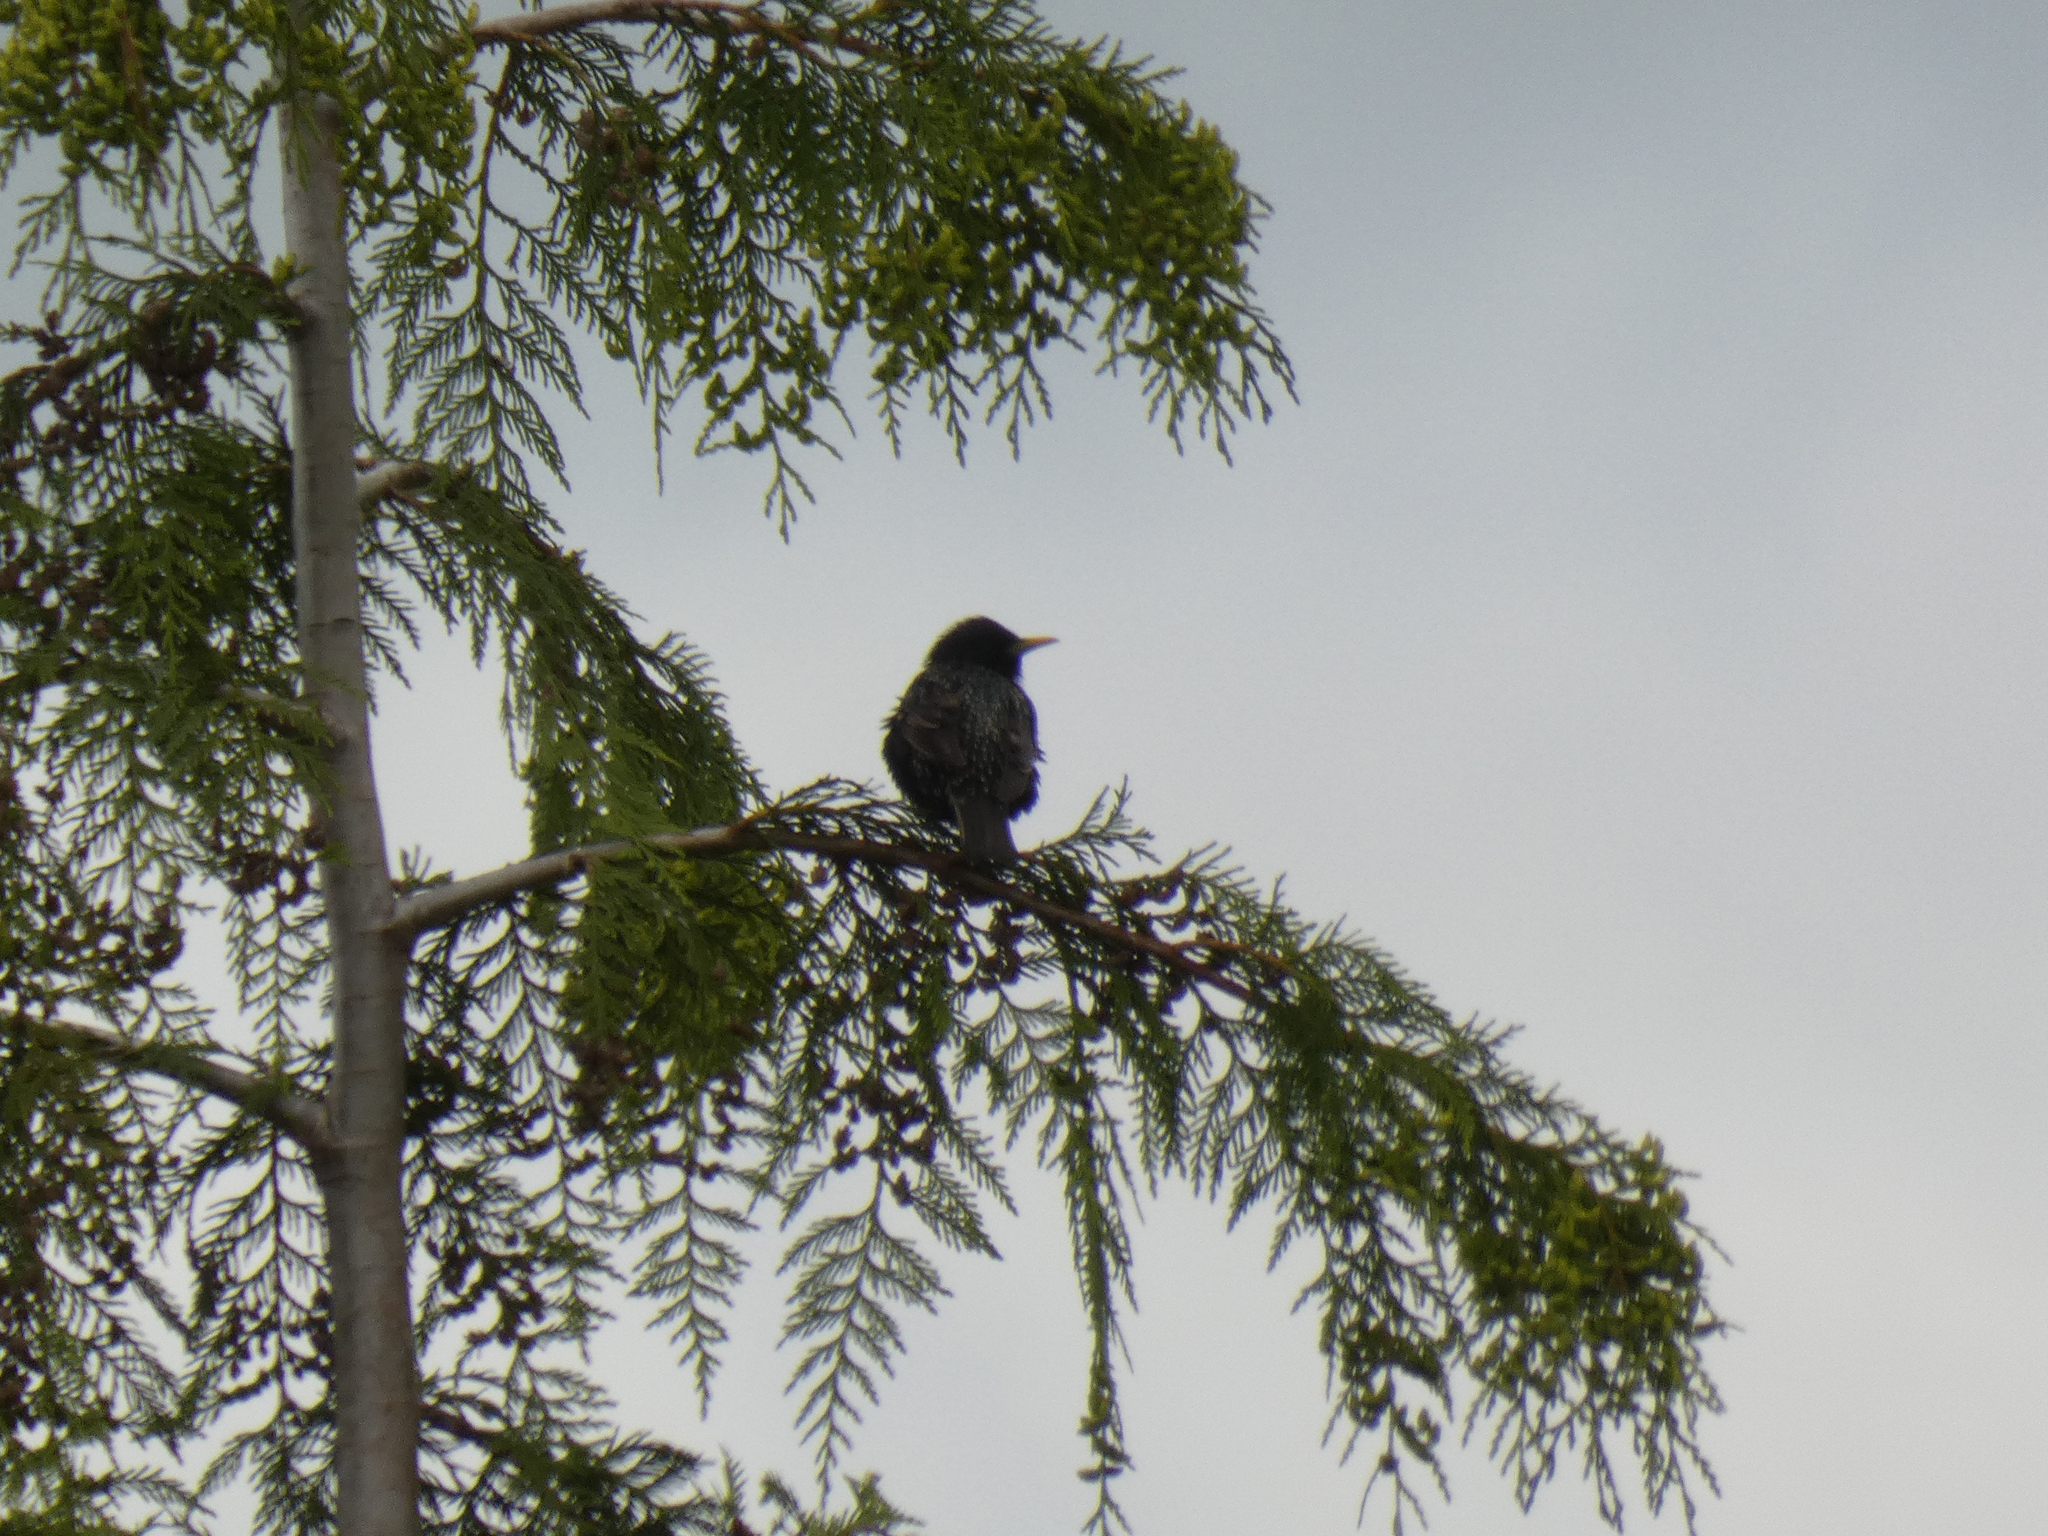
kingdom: Animalia
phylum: Chordata
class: Aves
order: Passeriformes
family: Sturnidae
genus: Sturnus
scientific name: Sturnus vulgaris
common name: Common starling
